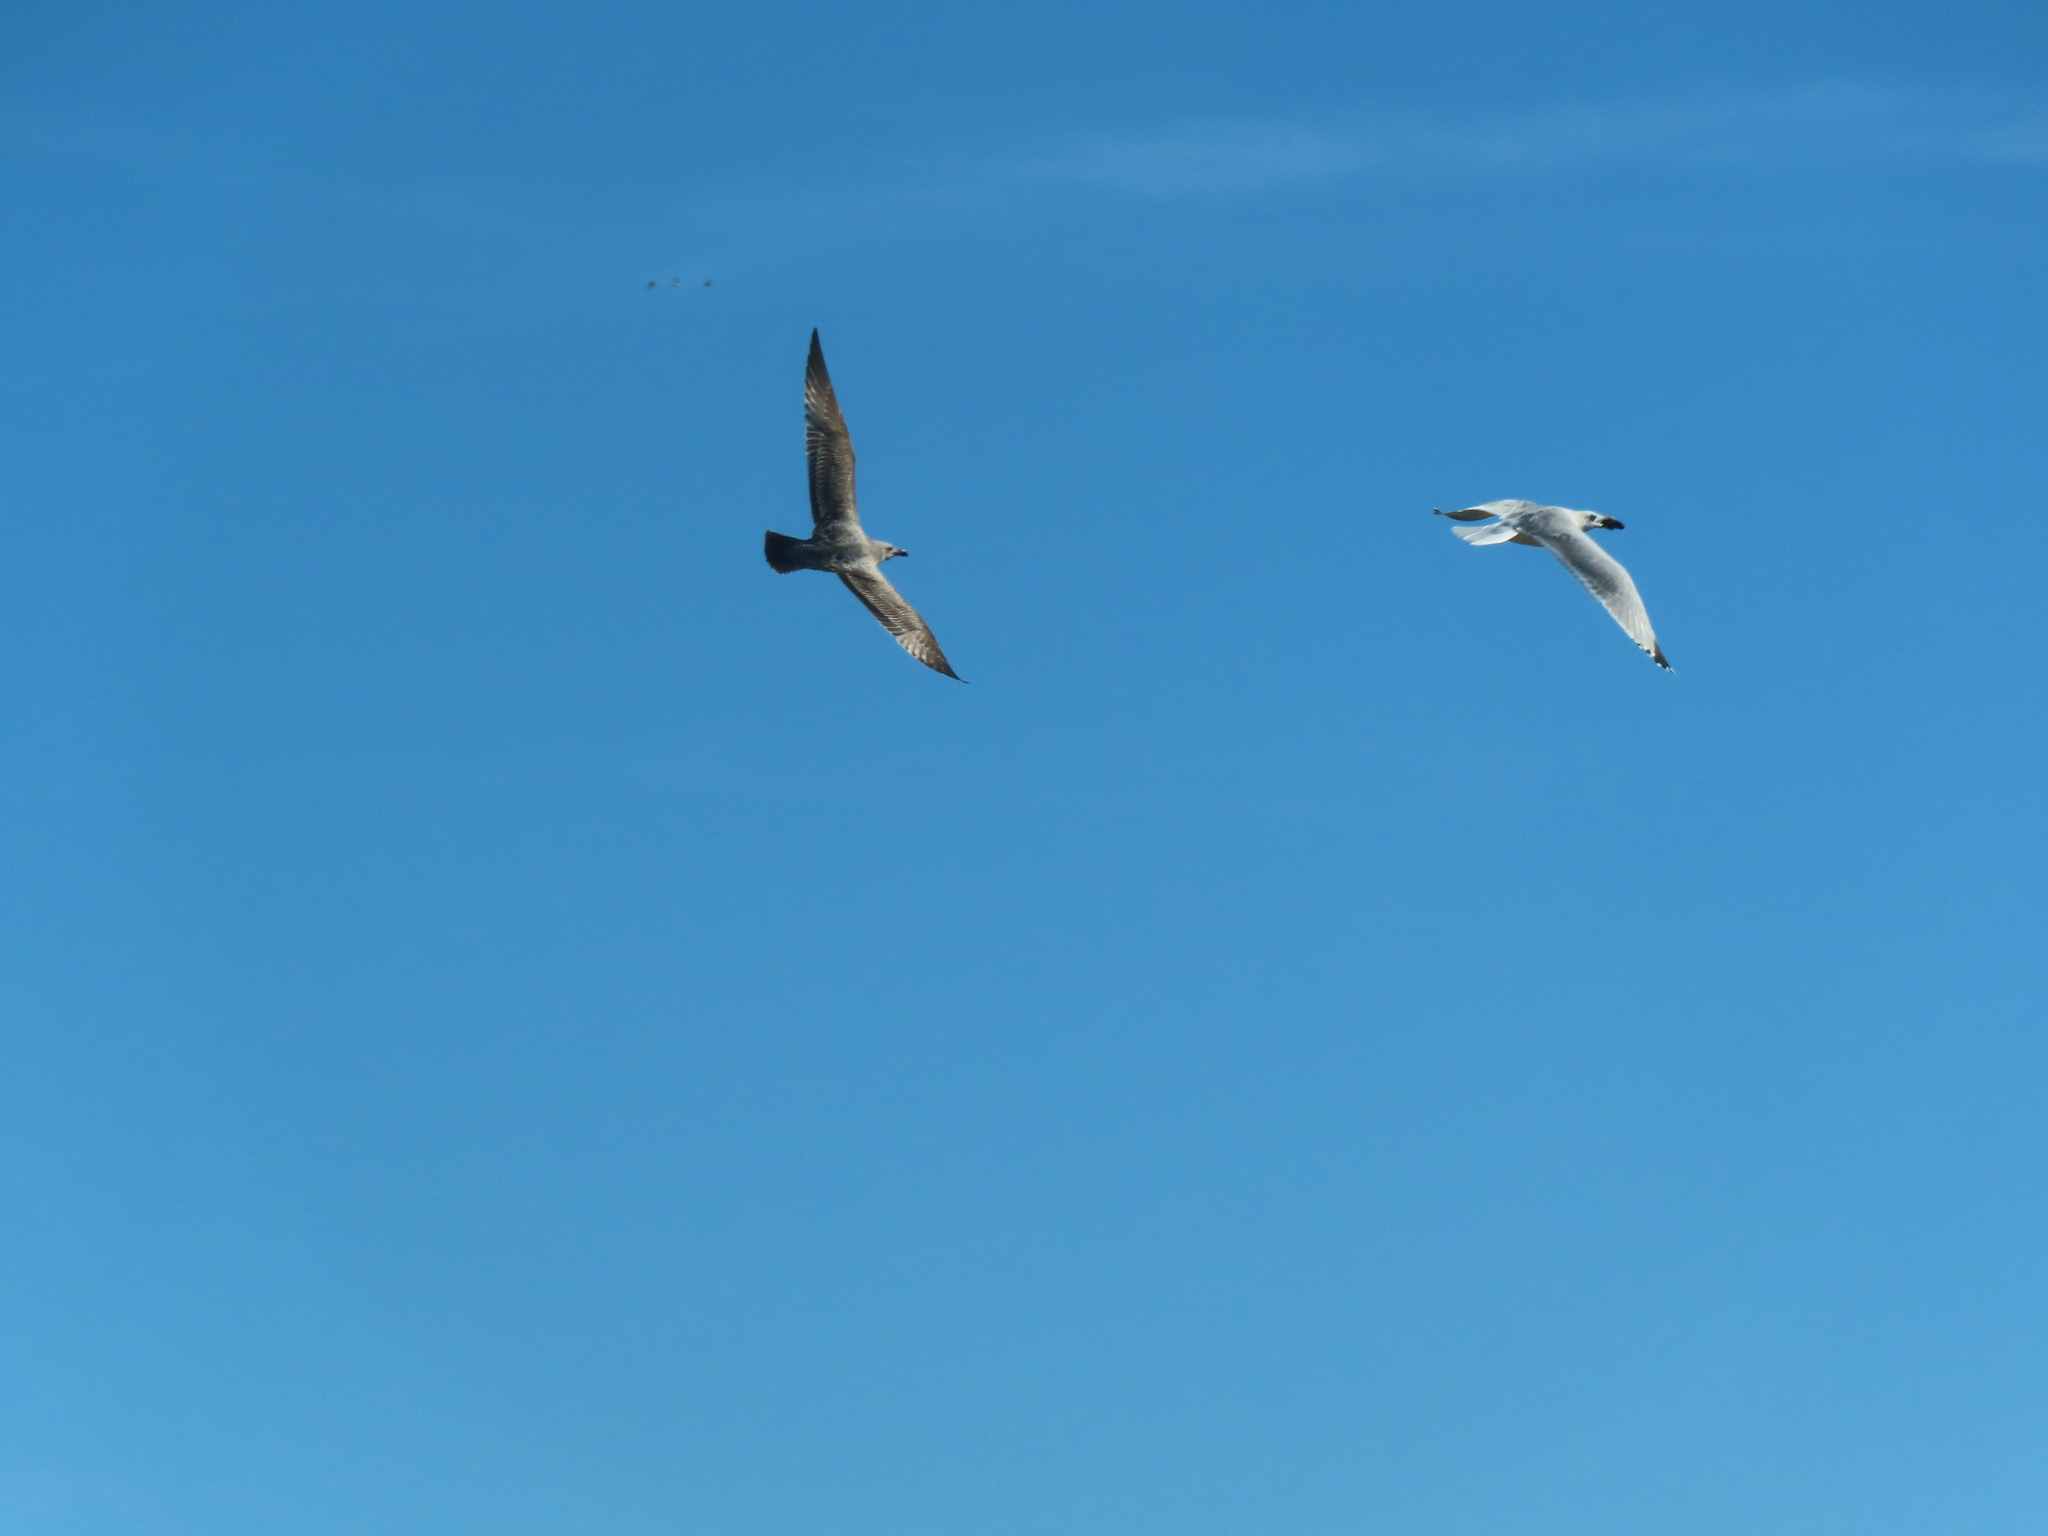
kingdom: Animalia
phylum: Chordata
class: Aves
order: Charadriiformes
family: Laridae
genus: Larus
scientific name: Larus argentatus
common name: Herring gull
